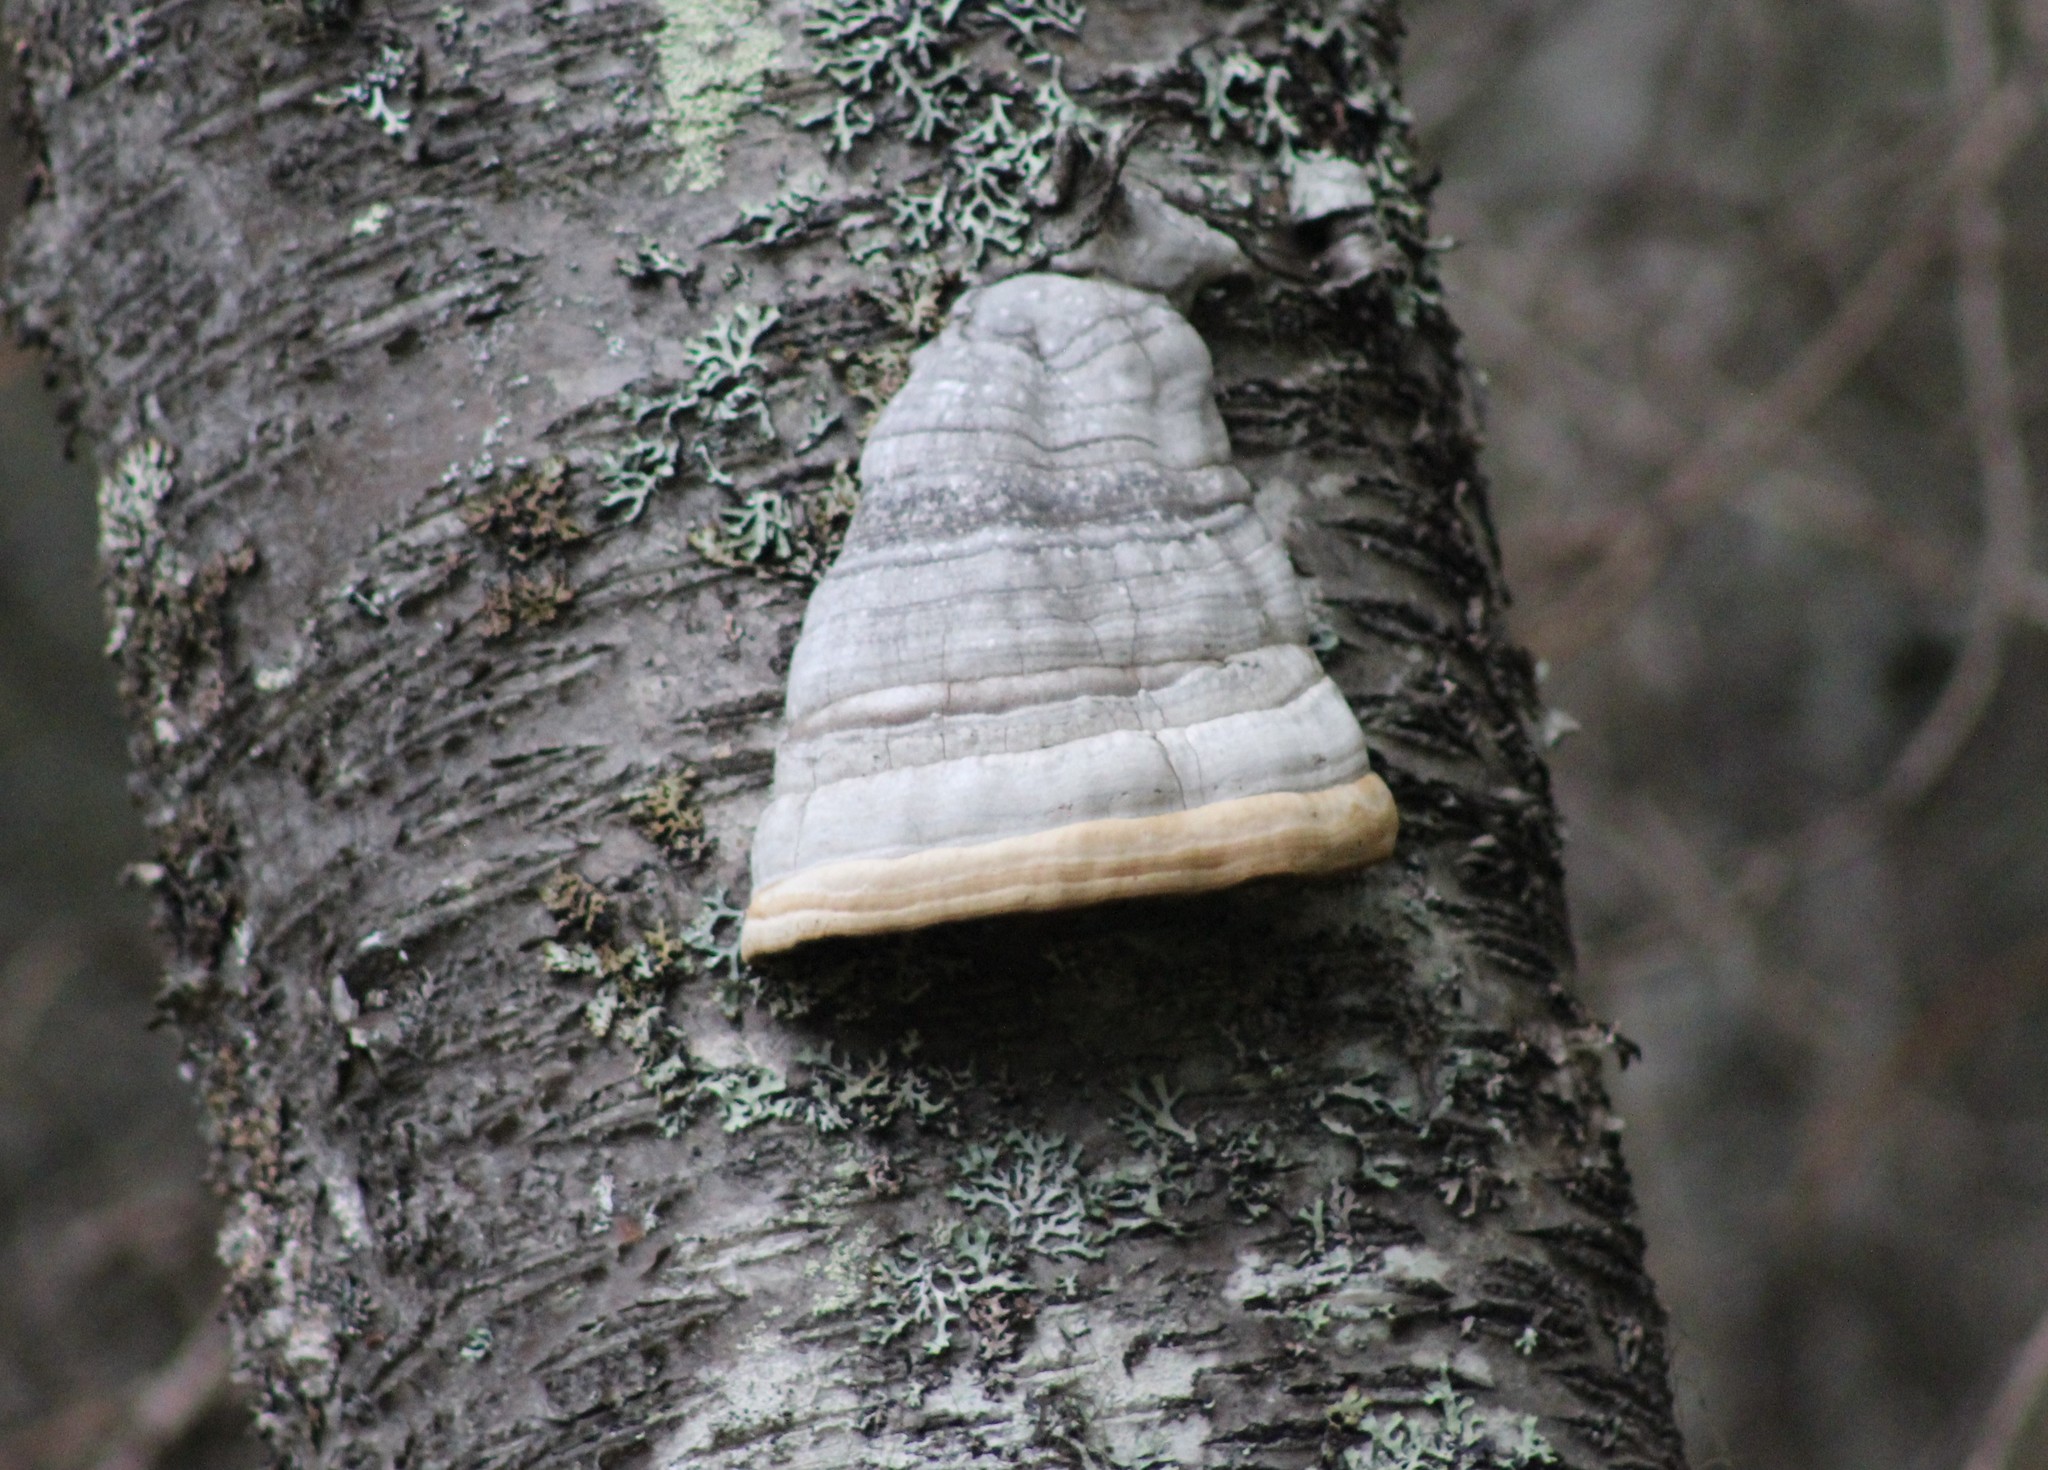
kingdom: Fungi
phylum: Basidiomycota
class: Agaricomycetes
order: Polyporales
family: Polyporaceae
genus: Fomes
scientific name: Fomes fomentarius
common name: Hoof fungus
